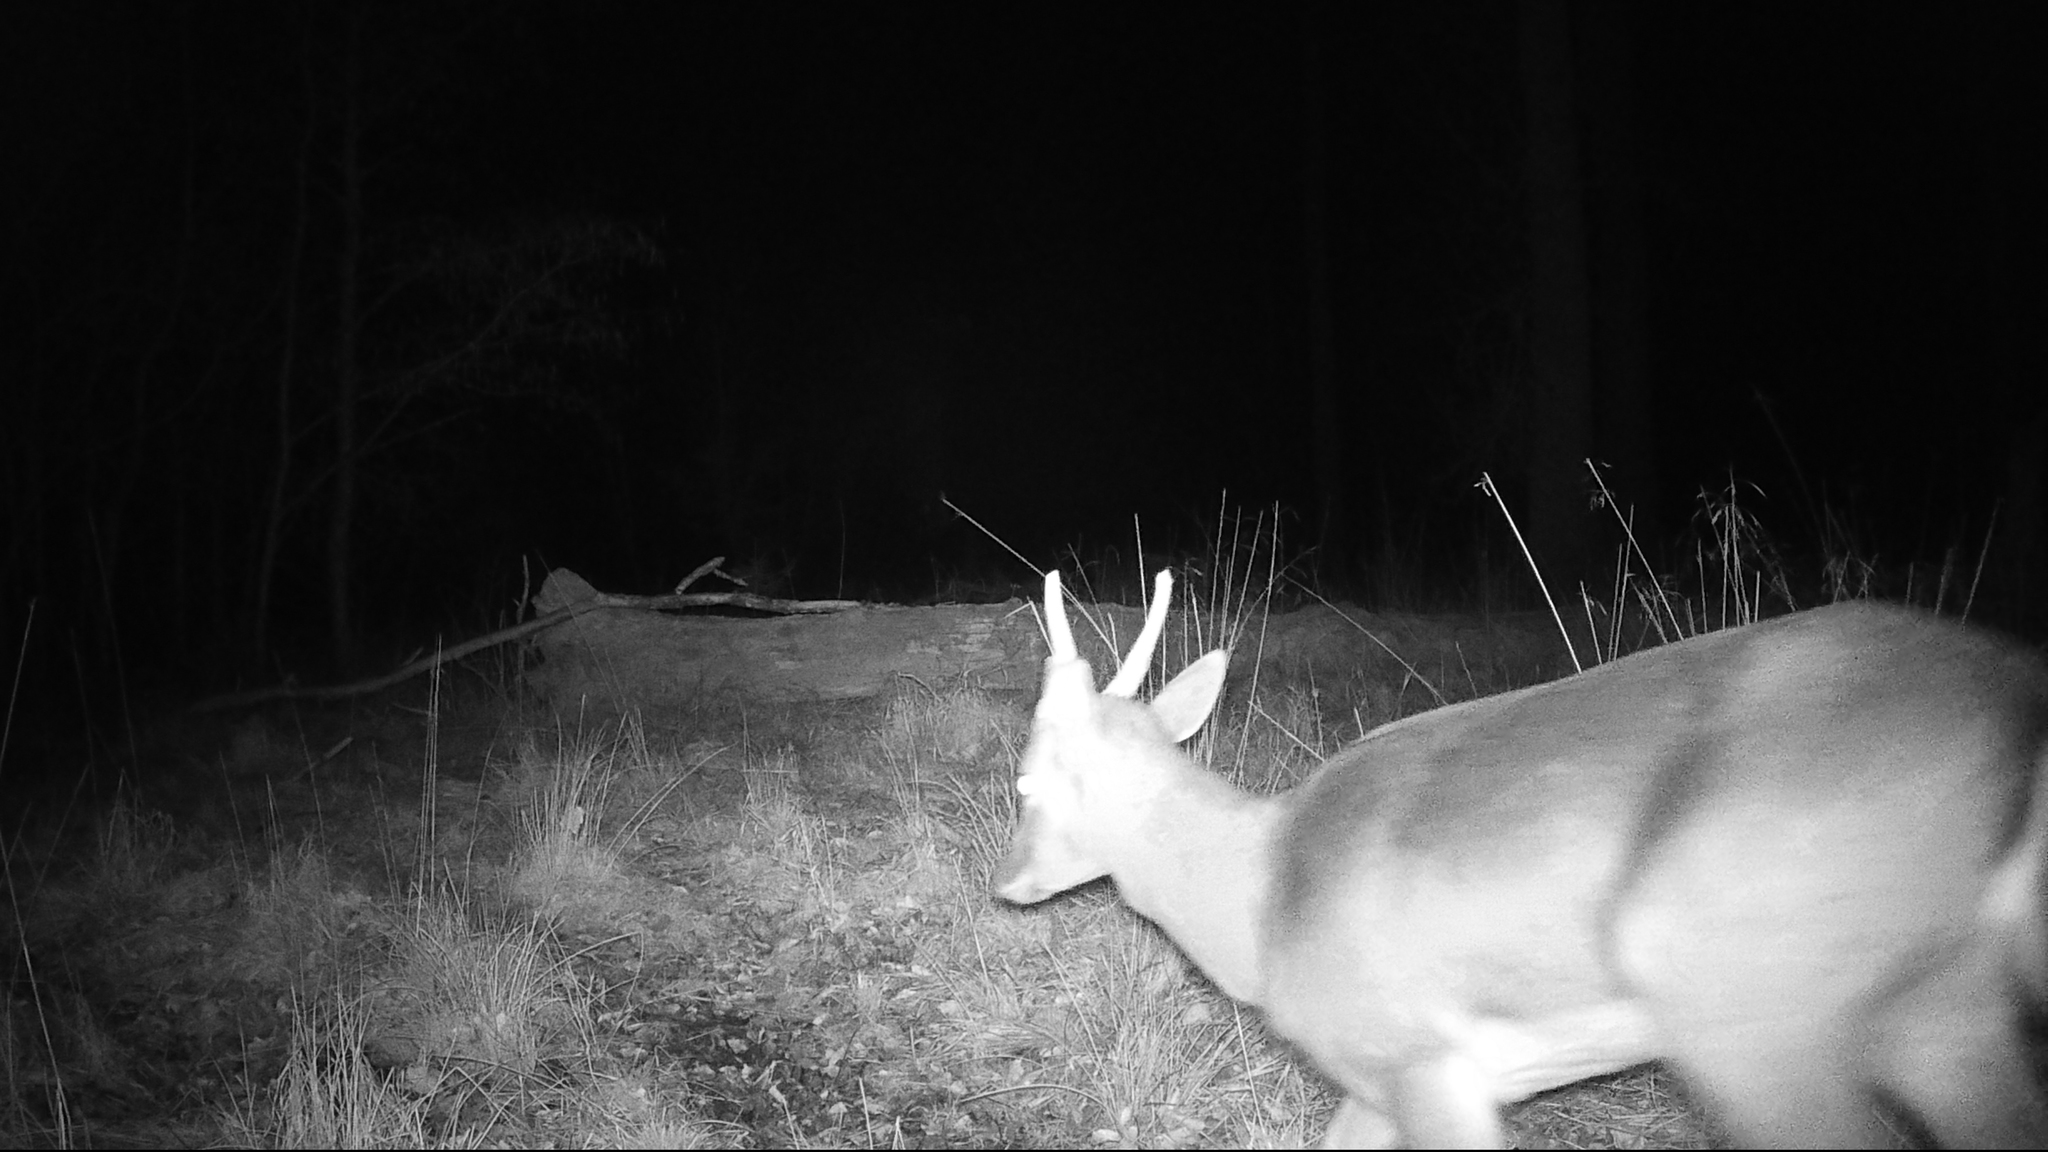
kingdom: Animalia
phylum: Chordata
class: Mammalia
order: Artiodactyla
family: Cervidae
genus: Dama
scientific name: Dama dama
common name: Fallow deer
